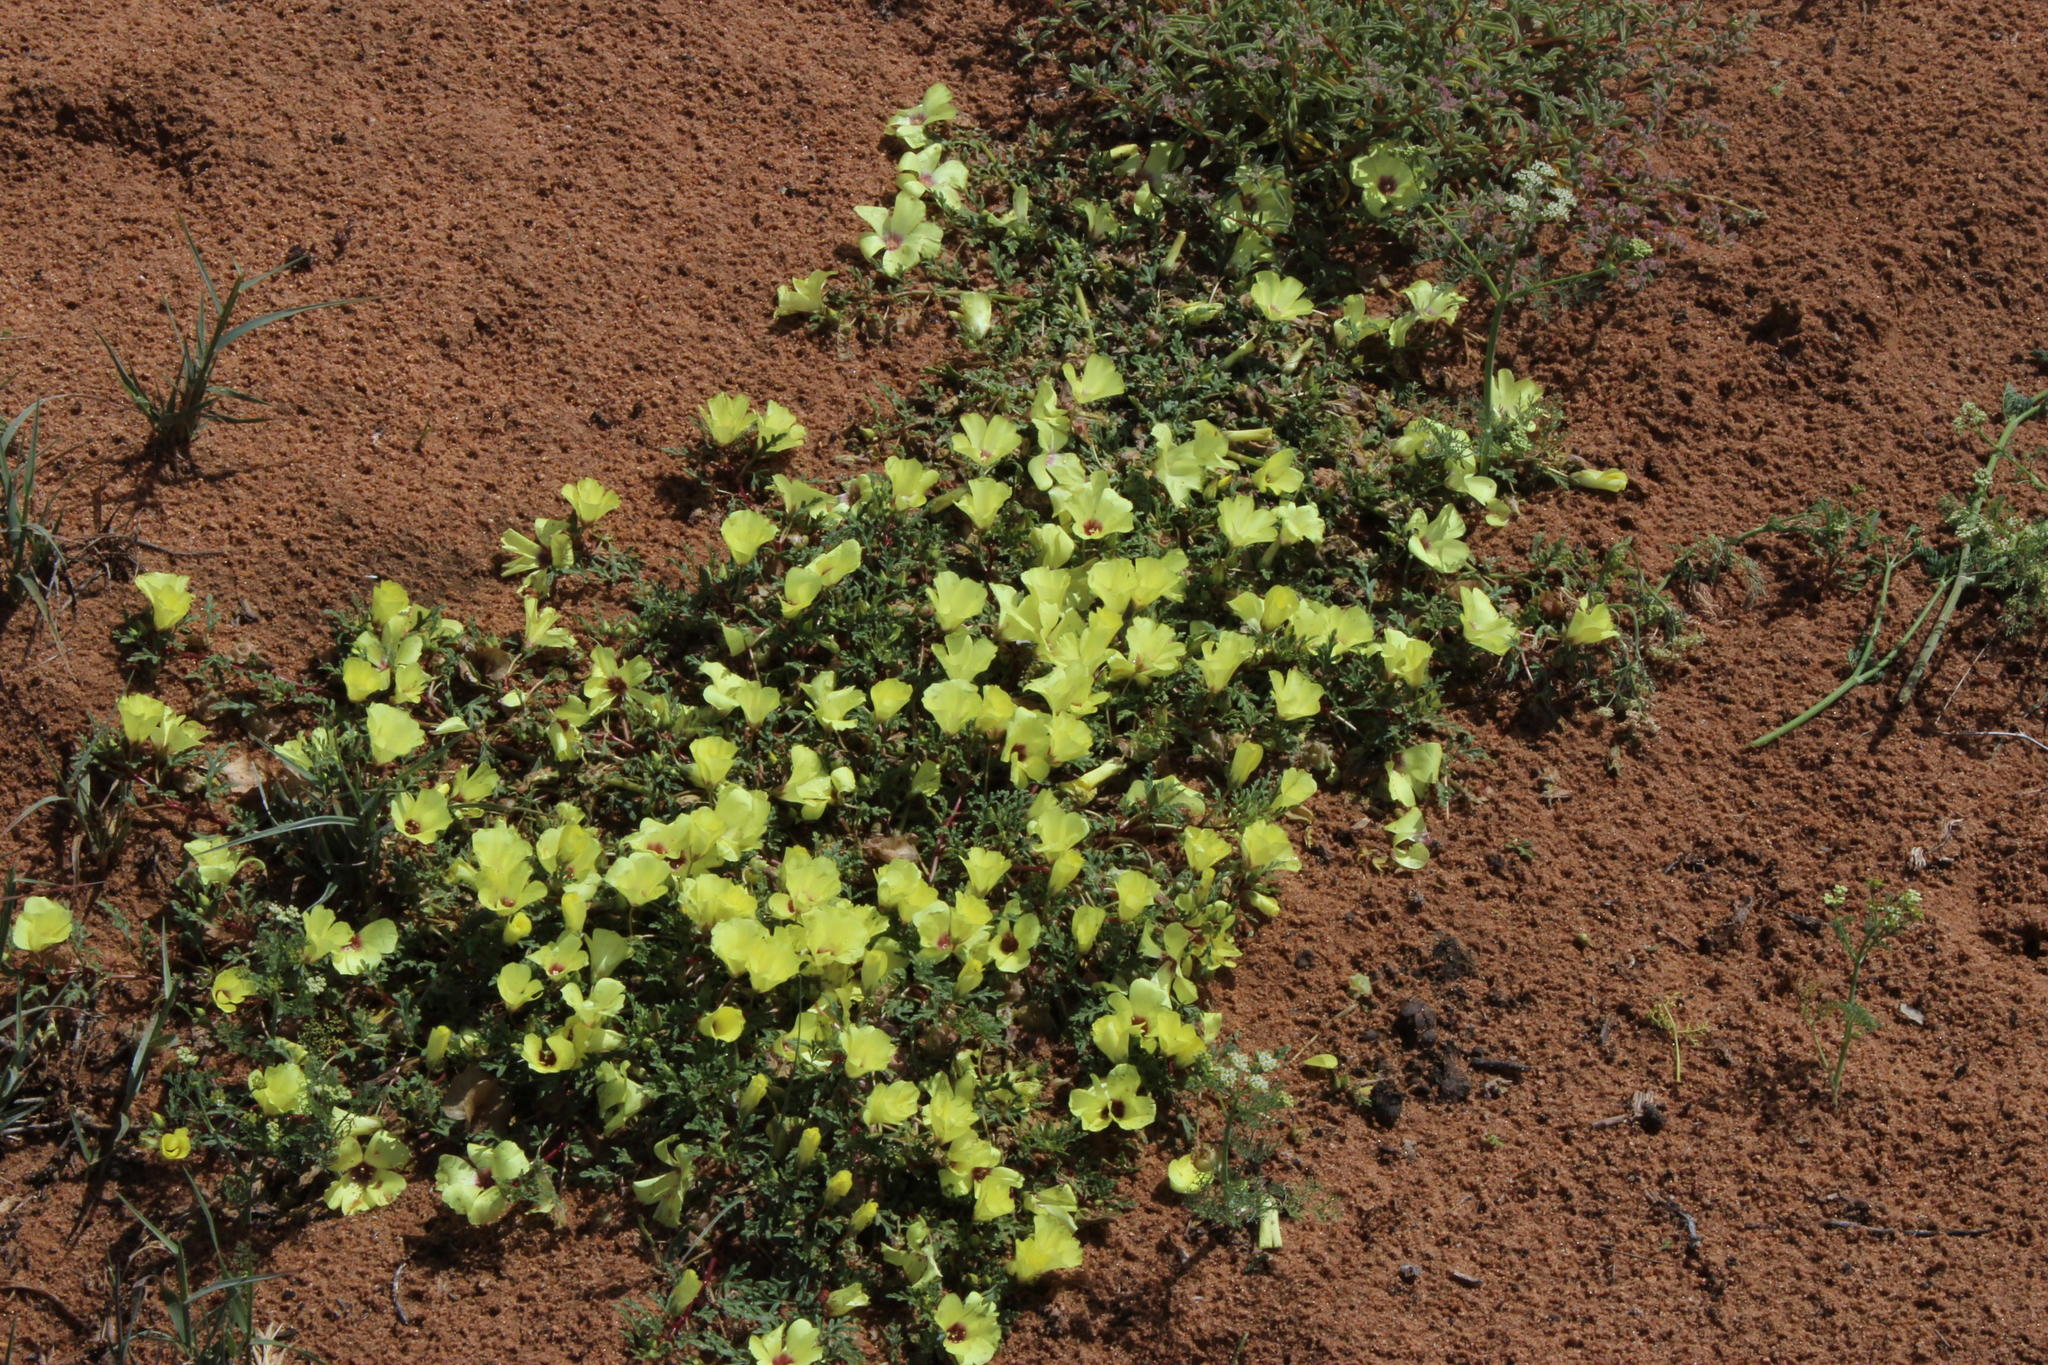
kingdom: Plantae
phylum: Tracheophyta
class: Magnoliopsida
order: Malvales
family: Neuradaceae
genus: Grielum
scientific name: Grielum humifusum
